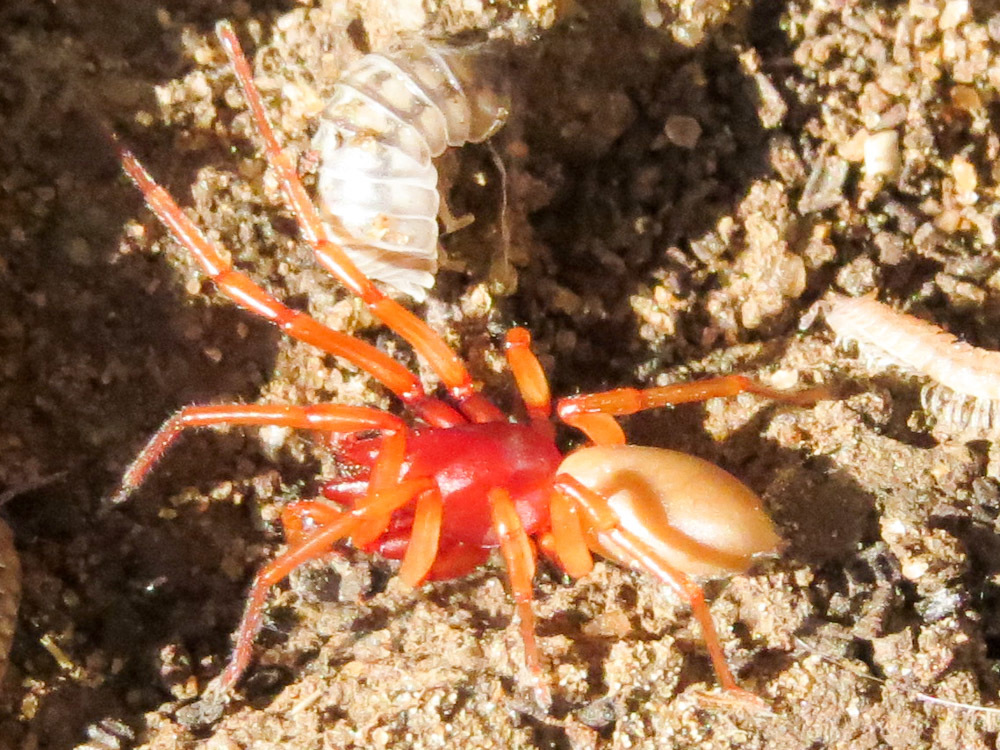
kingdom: Animalia
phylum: Arthropoda
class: Arachnida
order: Araneae
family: Dysderidae
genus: Dysdera
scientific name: Dysdera crocata
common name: Woodlouse spider
